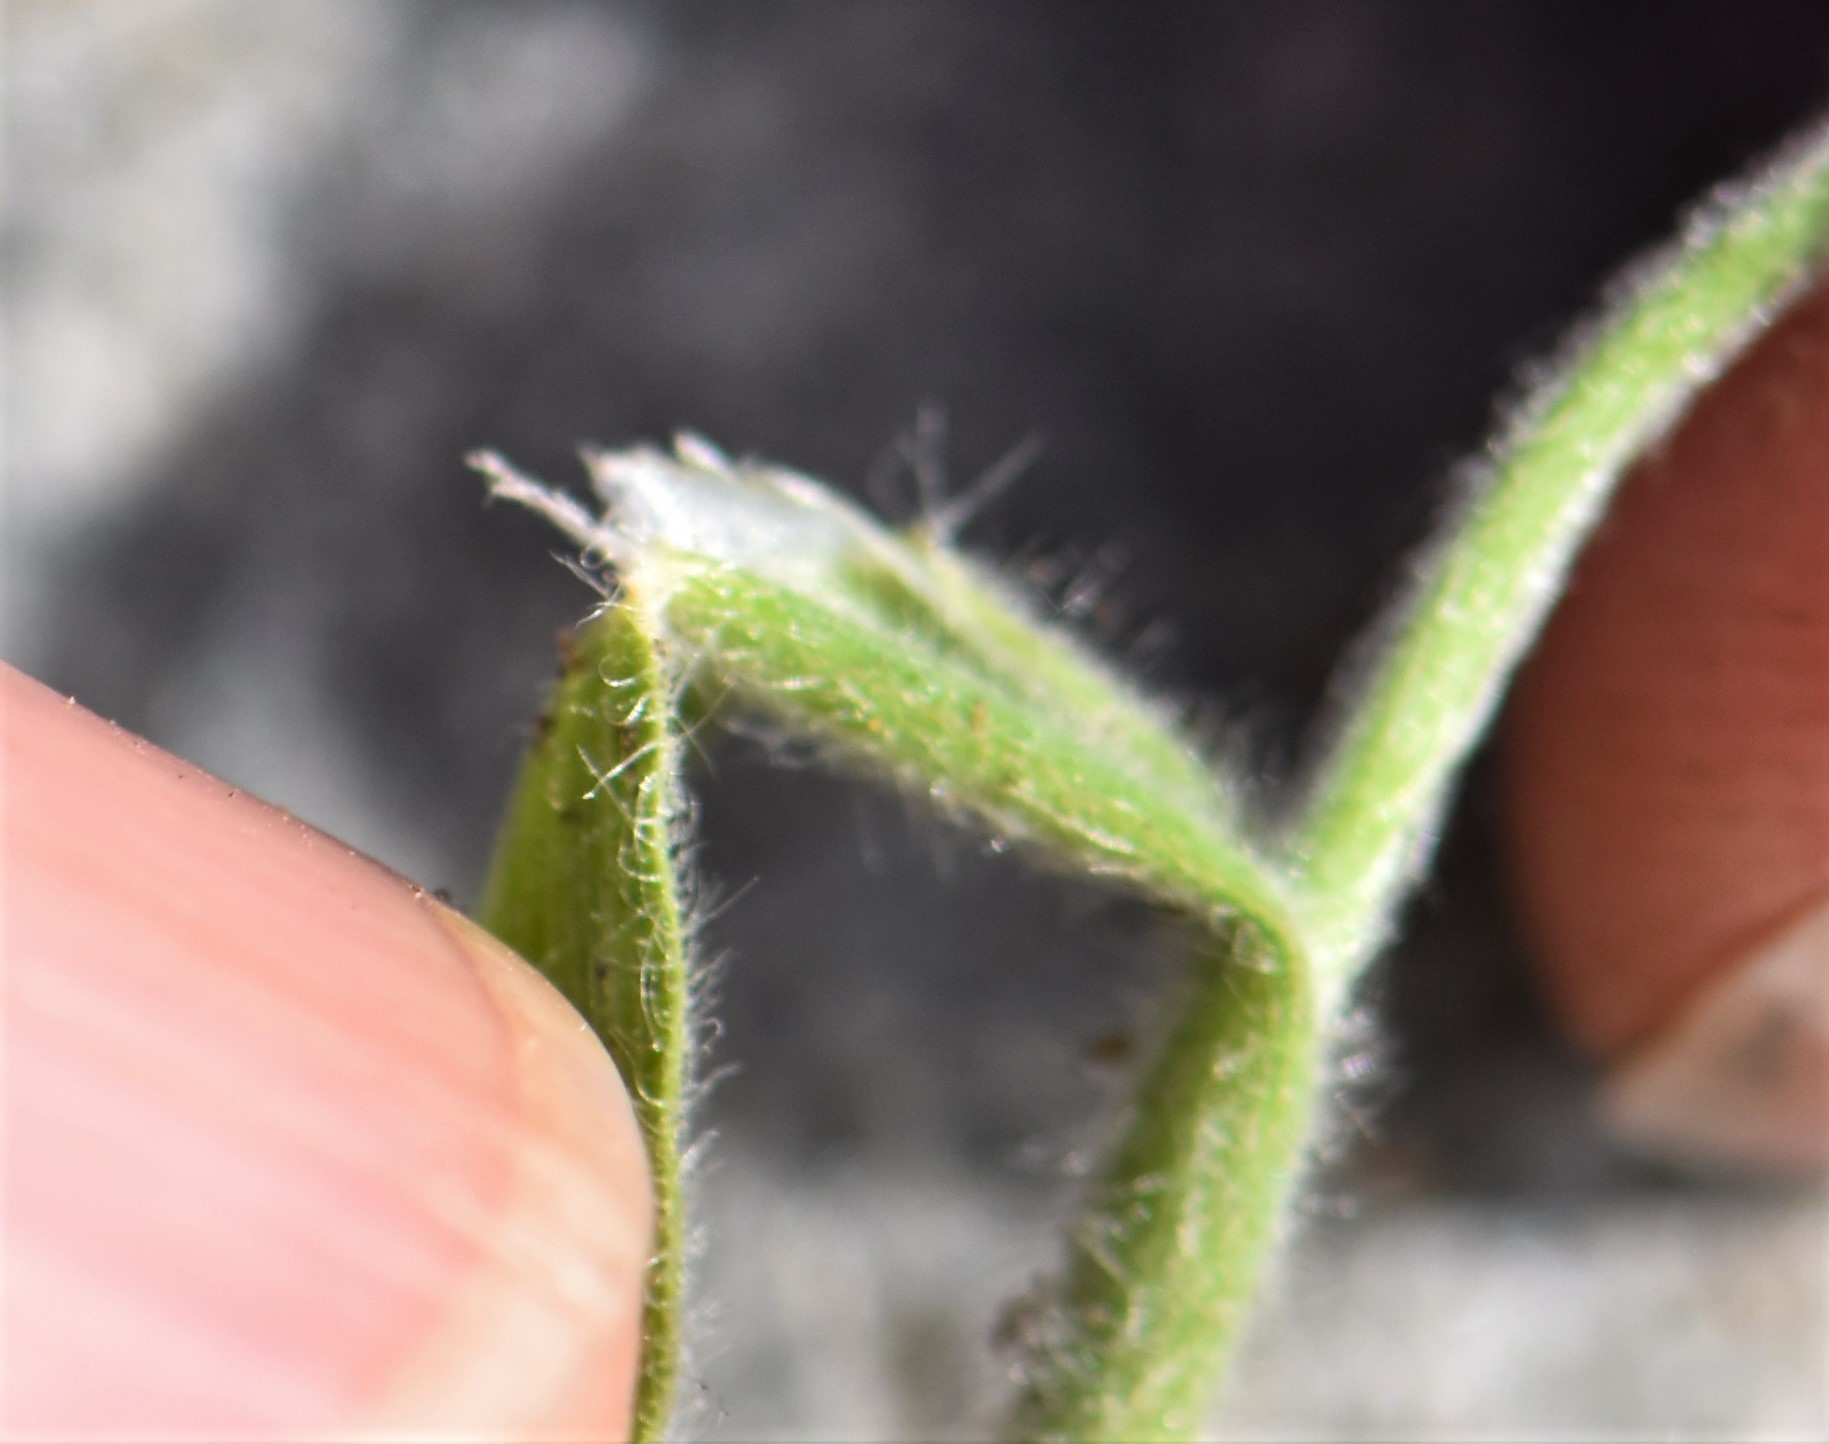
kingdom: Plantae
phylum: Tracheophyta
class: Liliopsida
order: Poales
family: Poaceae
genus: Koeleria
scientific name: Koeleria spicata
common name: Mountain trisetum
